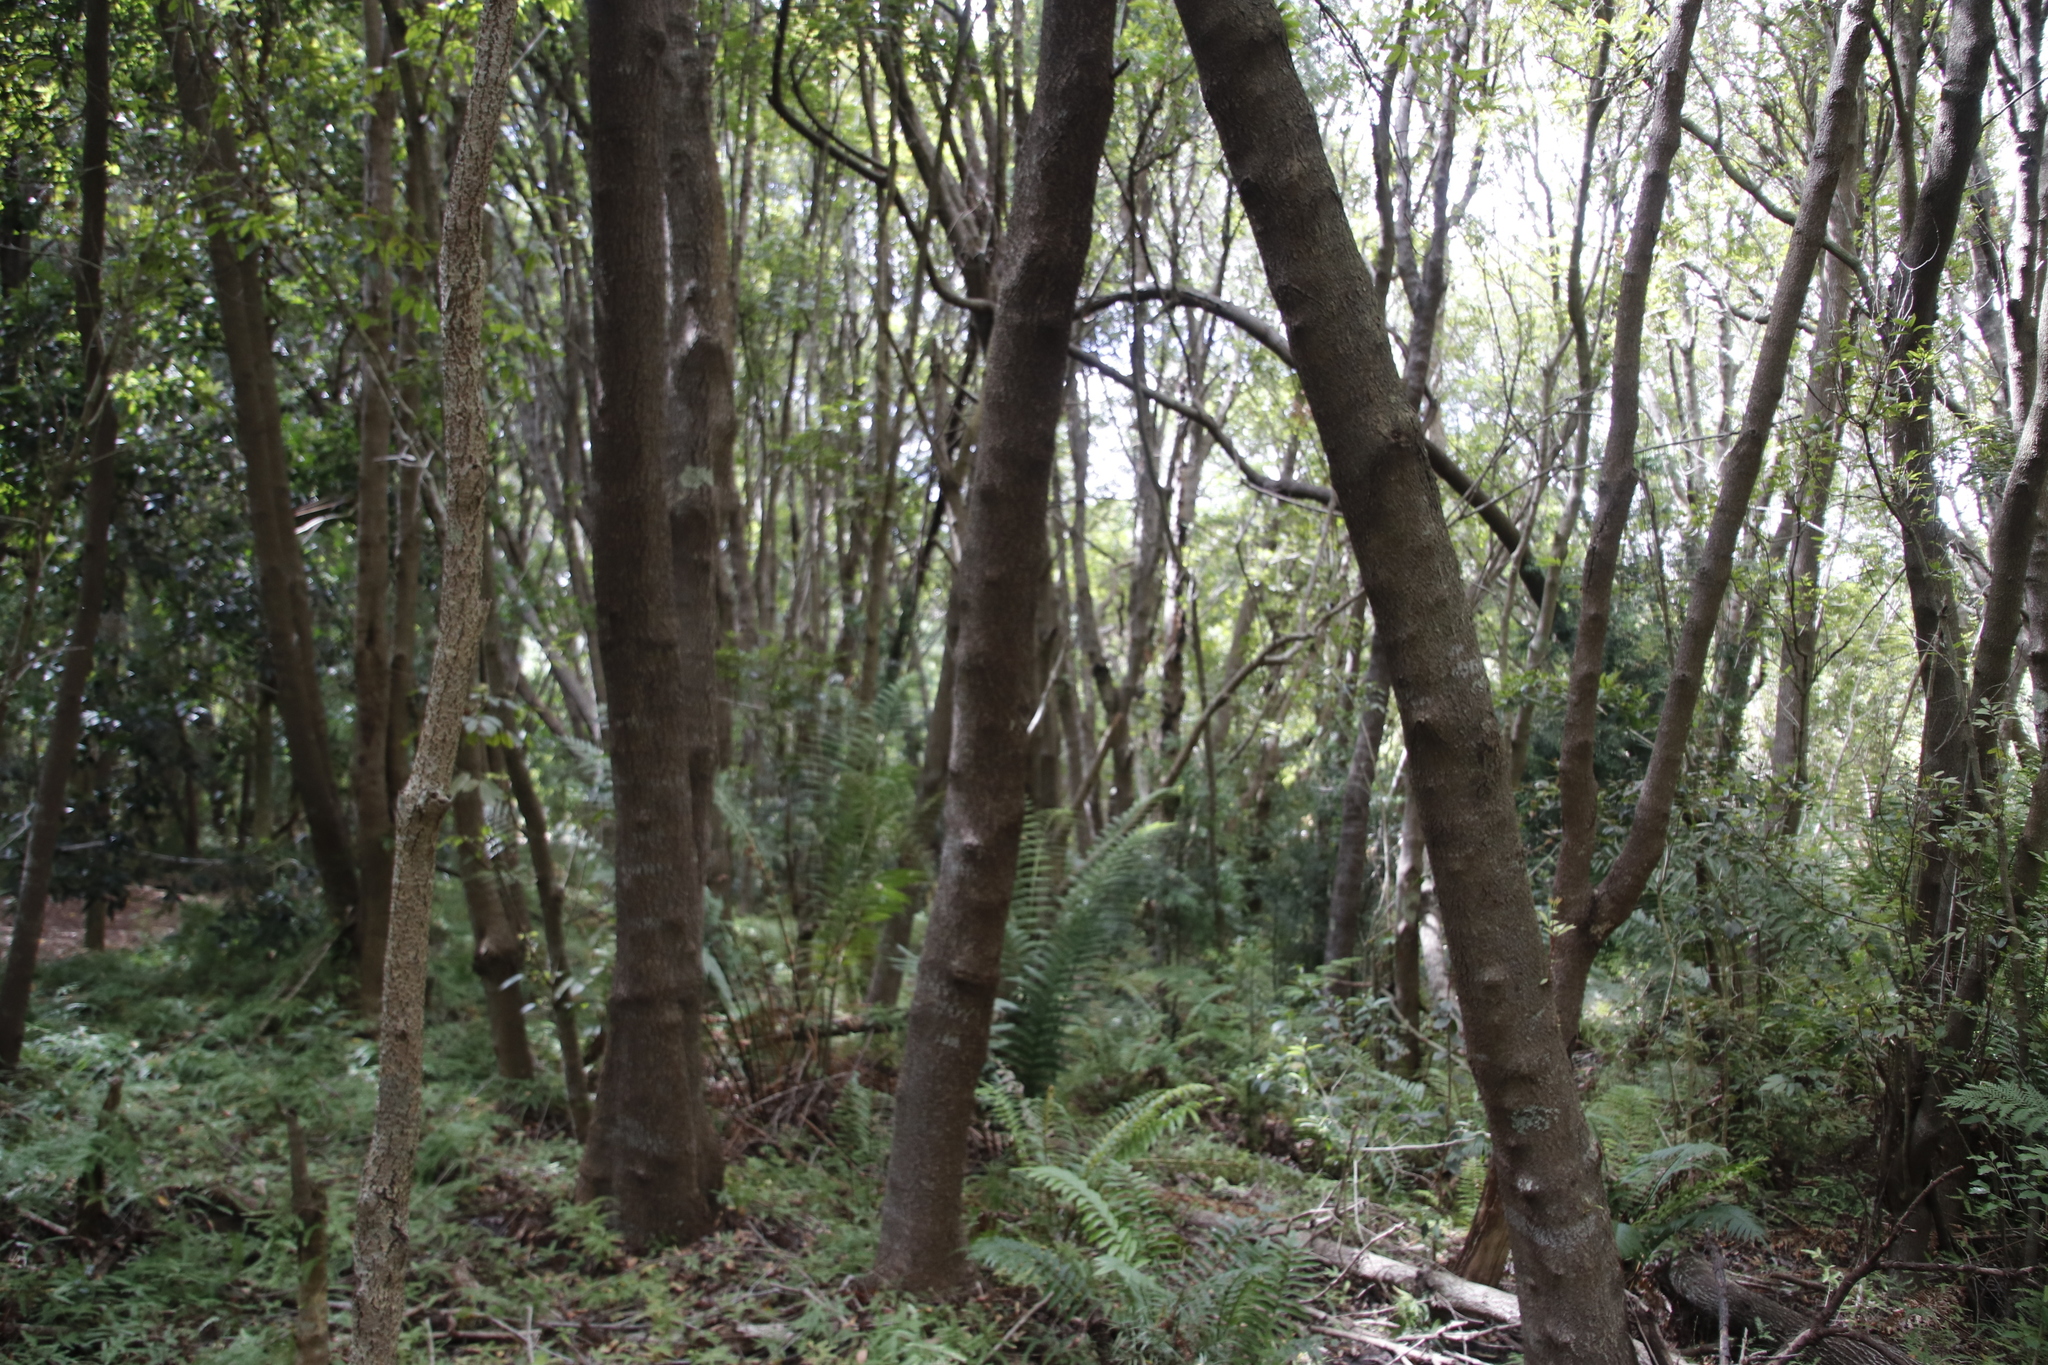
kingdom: Plantae
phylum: Tracheophyta
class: Magnoliopsida
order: Oxalidales
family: Cunoniaceae
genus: Cunonia
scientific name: Cunonia capensis
